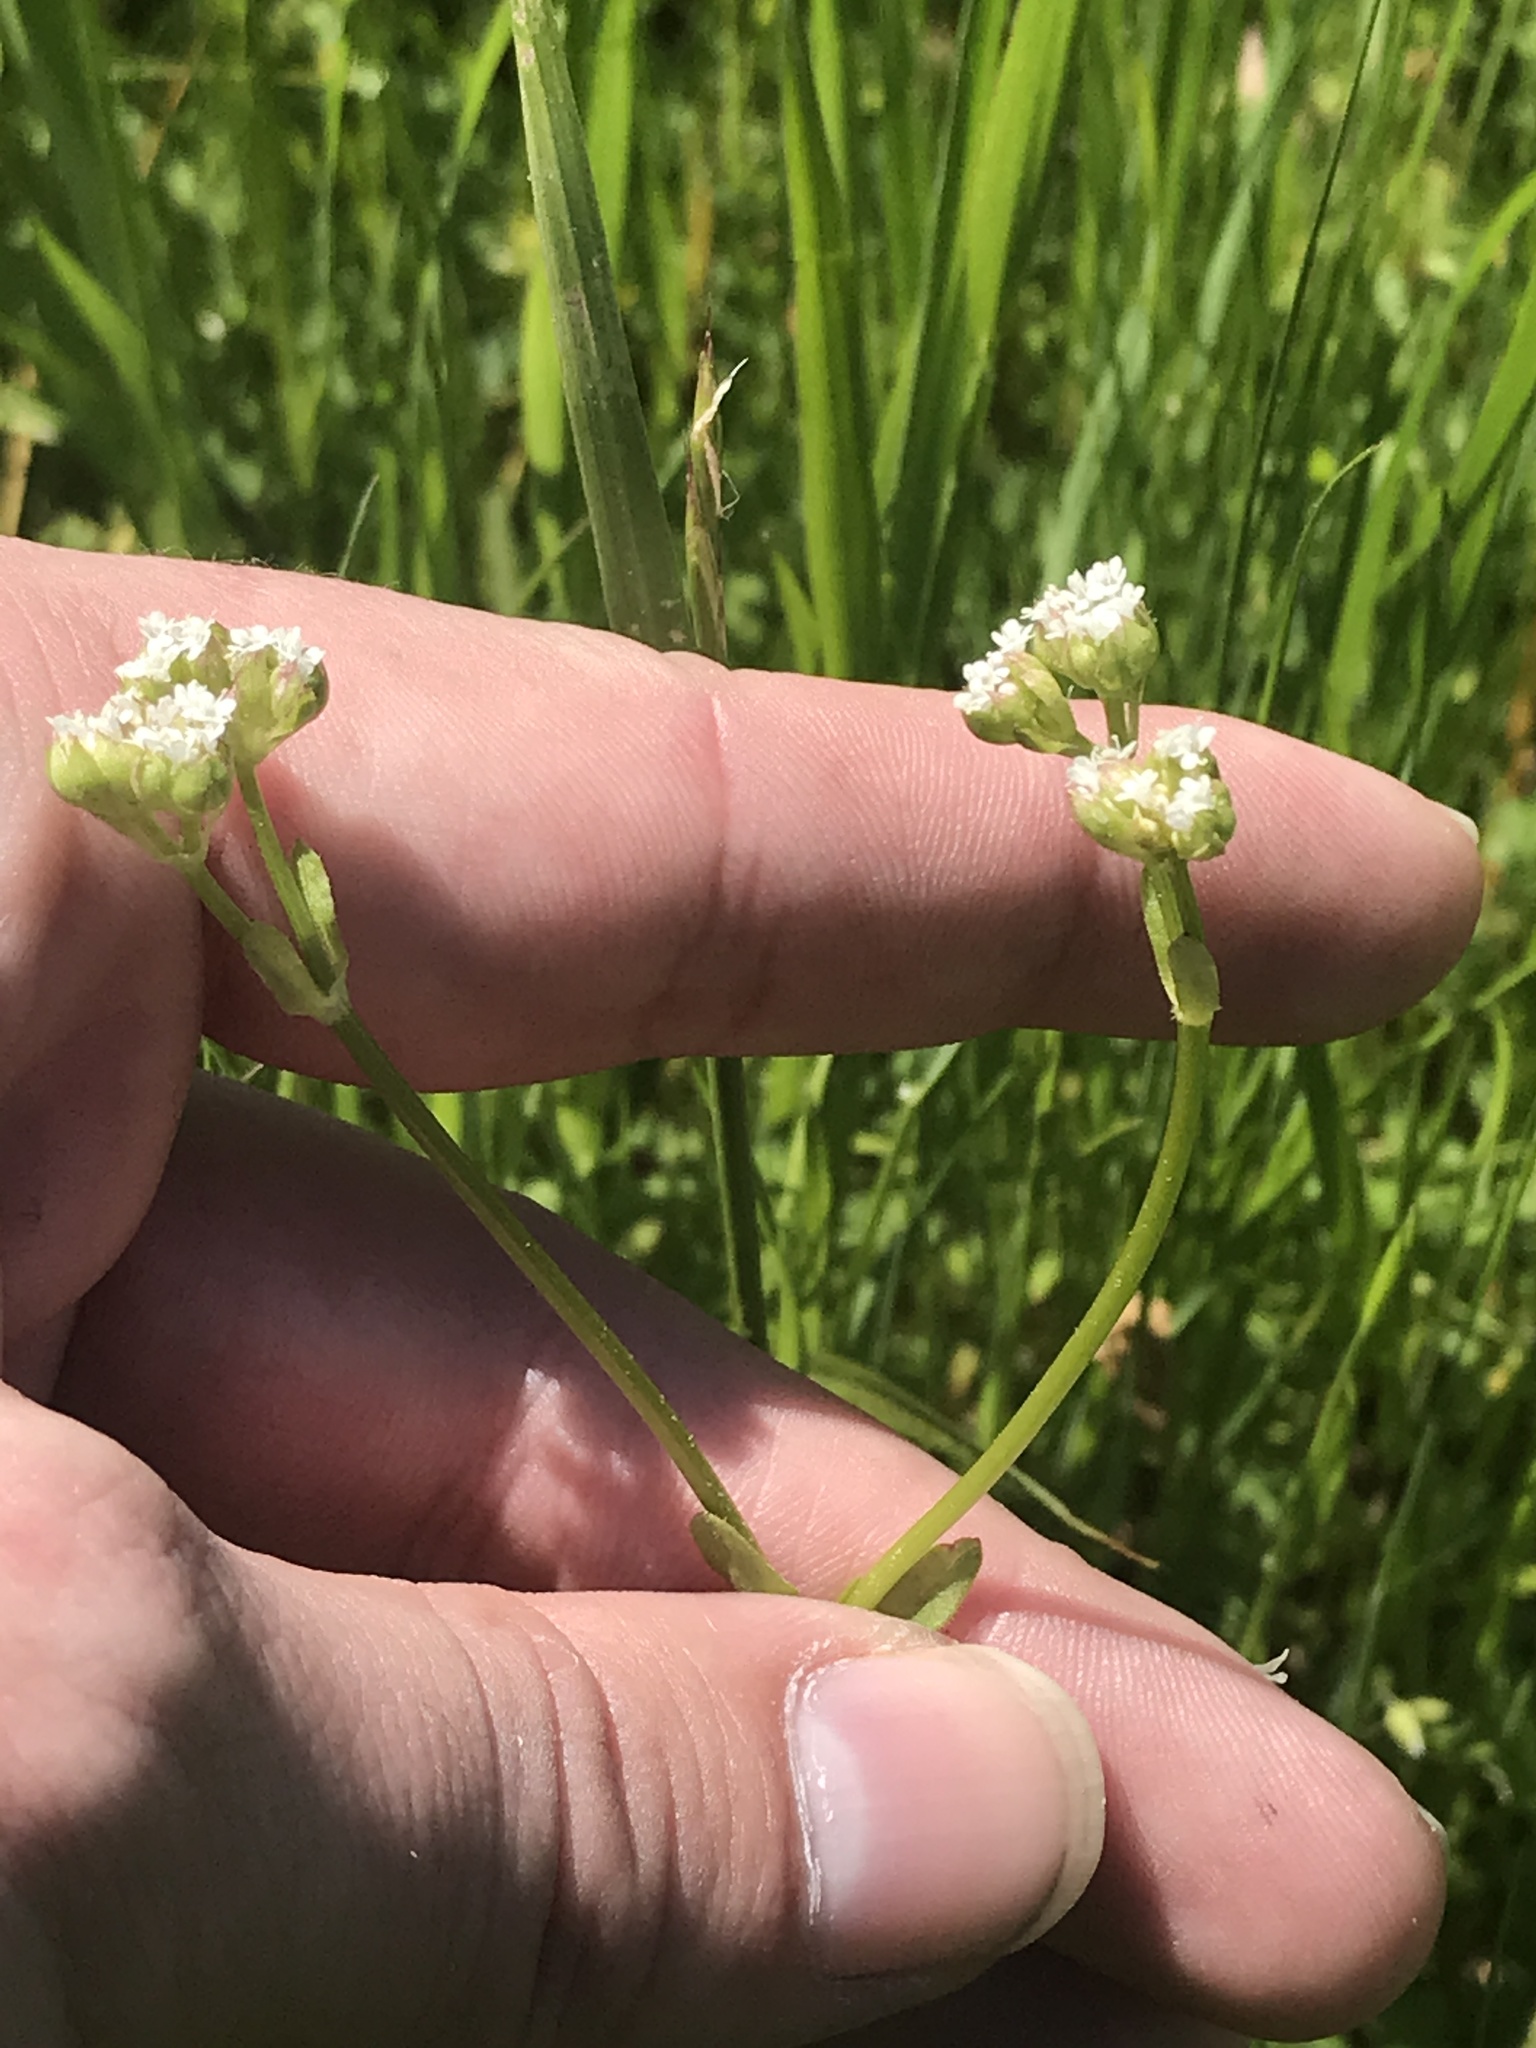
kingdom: Plantae
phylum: Tracheophyta
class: Magnoliopsida
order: Dipsacales
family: Caprifoliaceae
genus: Valerianella
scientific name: Valerianella radiata
